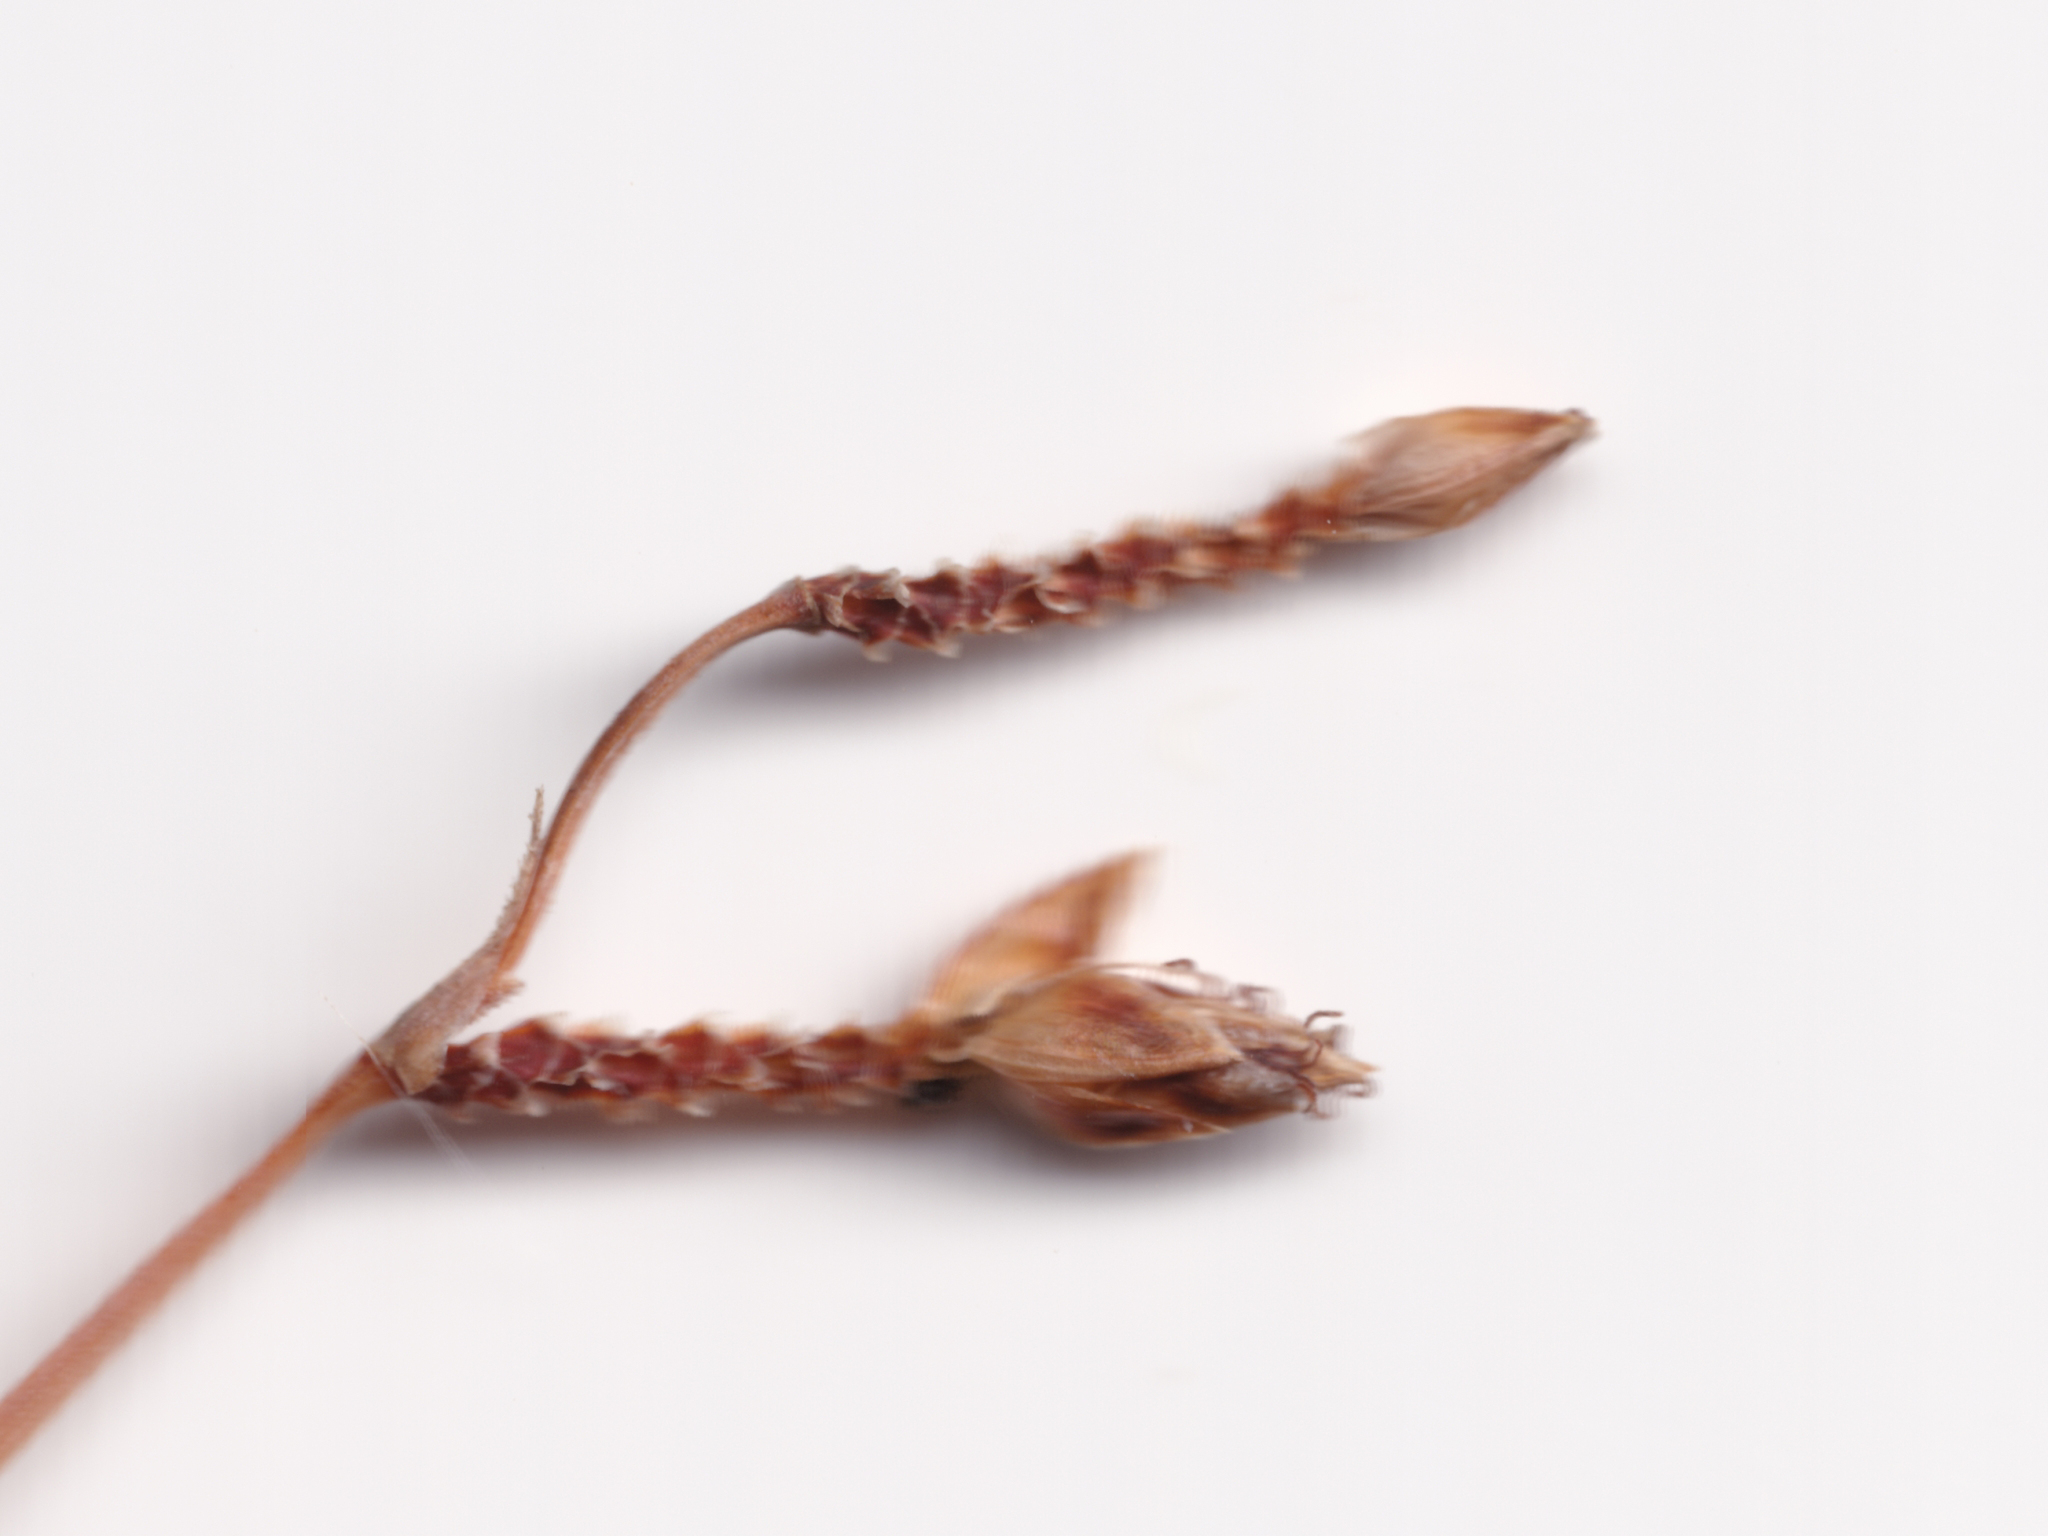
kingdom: Plantae
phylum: Tracheophyta
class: Liliopsida
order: Poales
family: Cyperaceae
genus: Fimbristylis
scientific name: Fimbristylis dichotoma
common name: Forked fimbry
